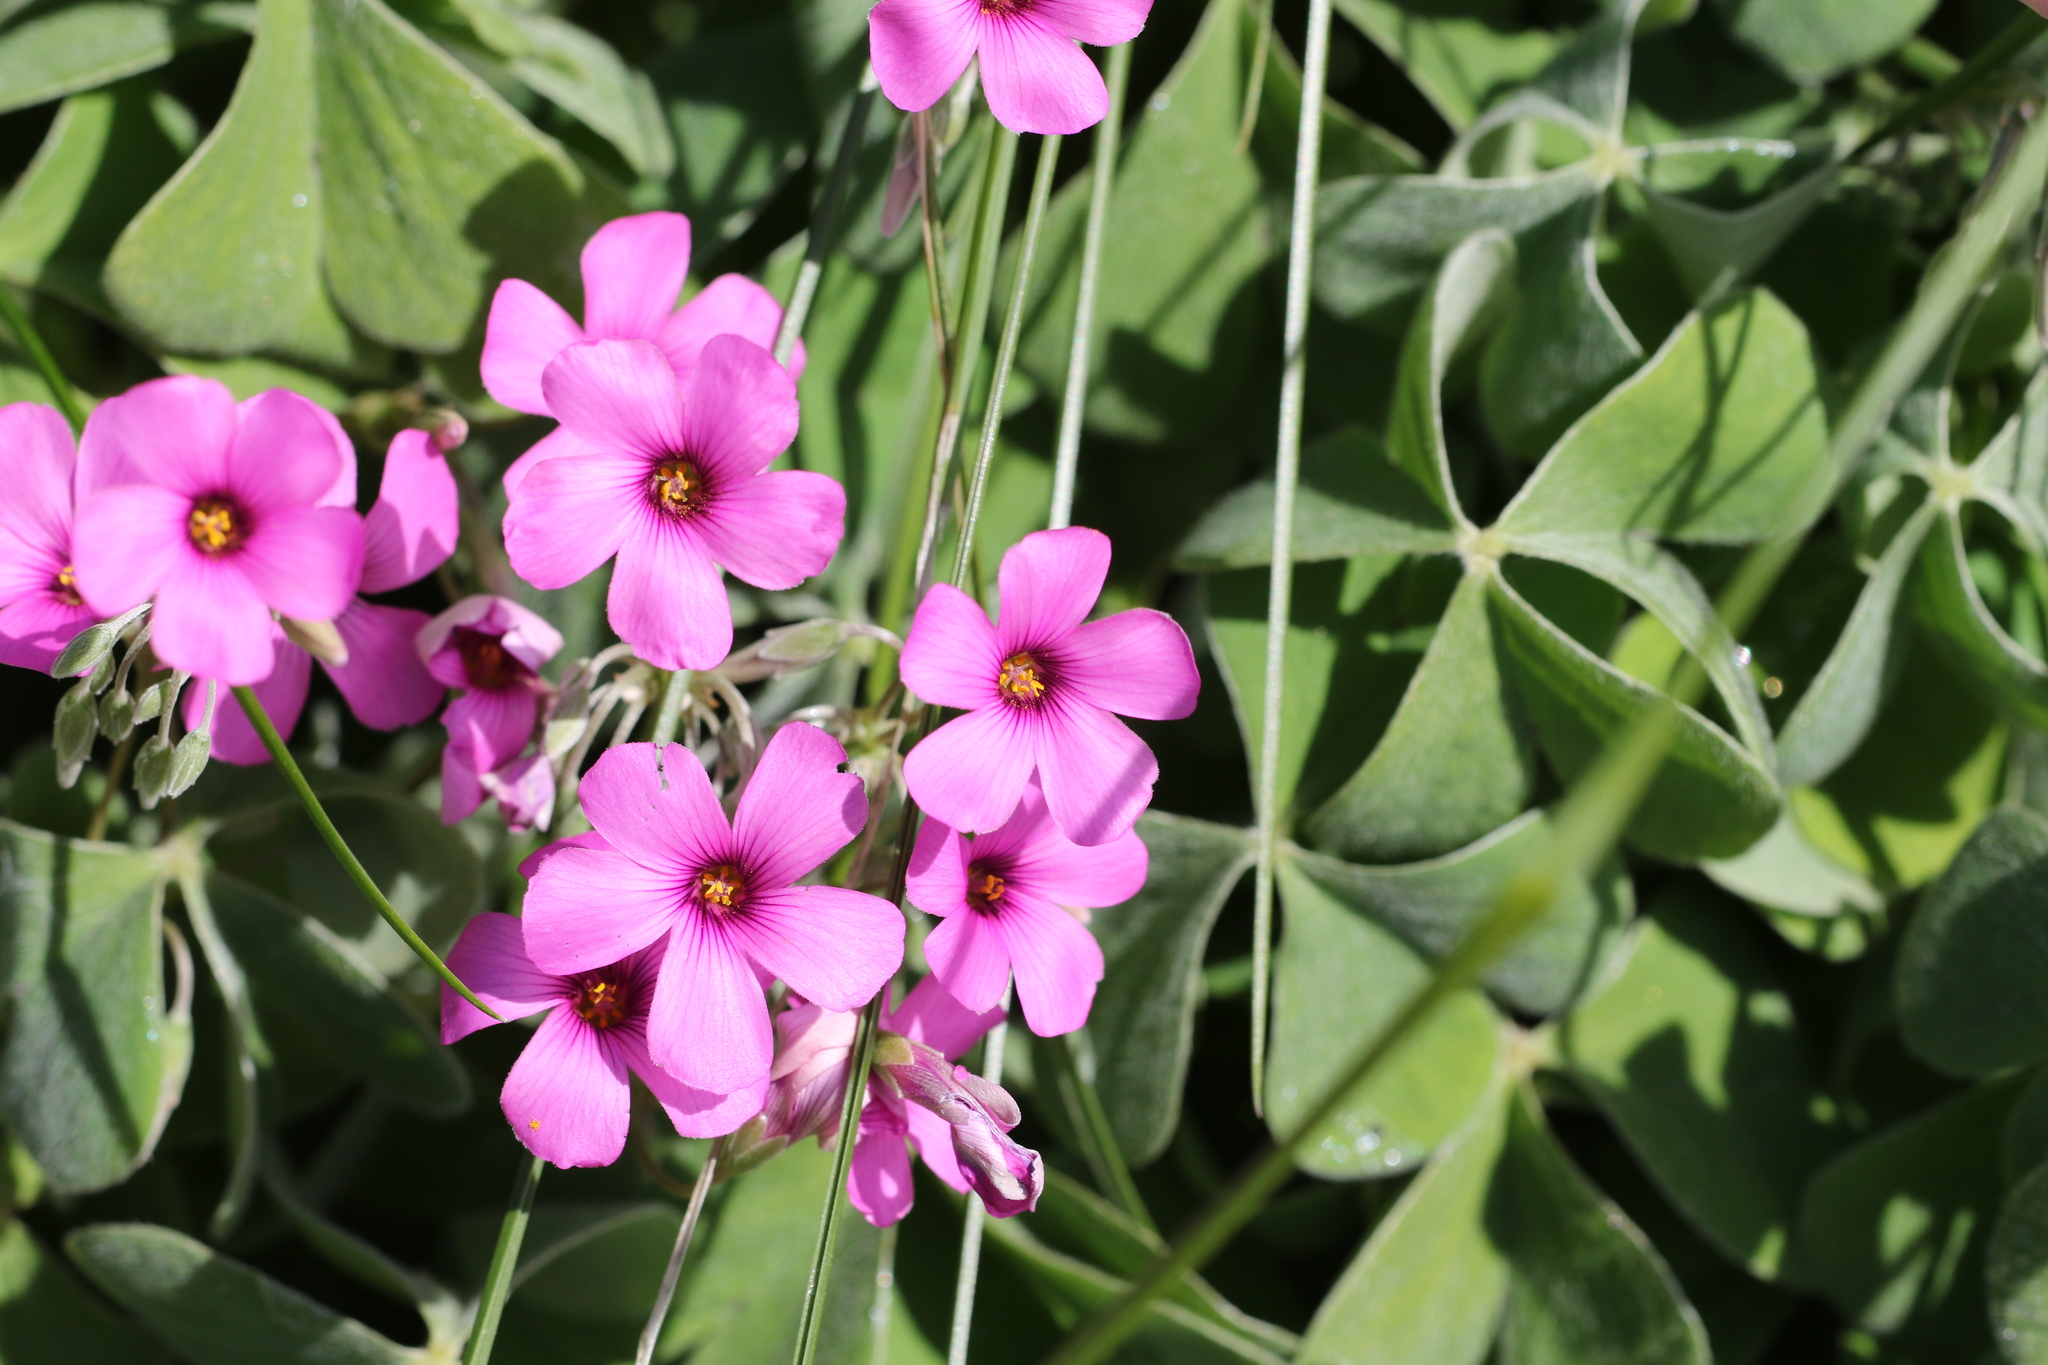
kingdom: Plantae
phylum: Tracheophyta
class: Magnoliopsida
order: Oxalidales
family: Oxalidaceae
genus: Oxalis
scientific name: Oxalis articulata
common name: Pink-sorrel
